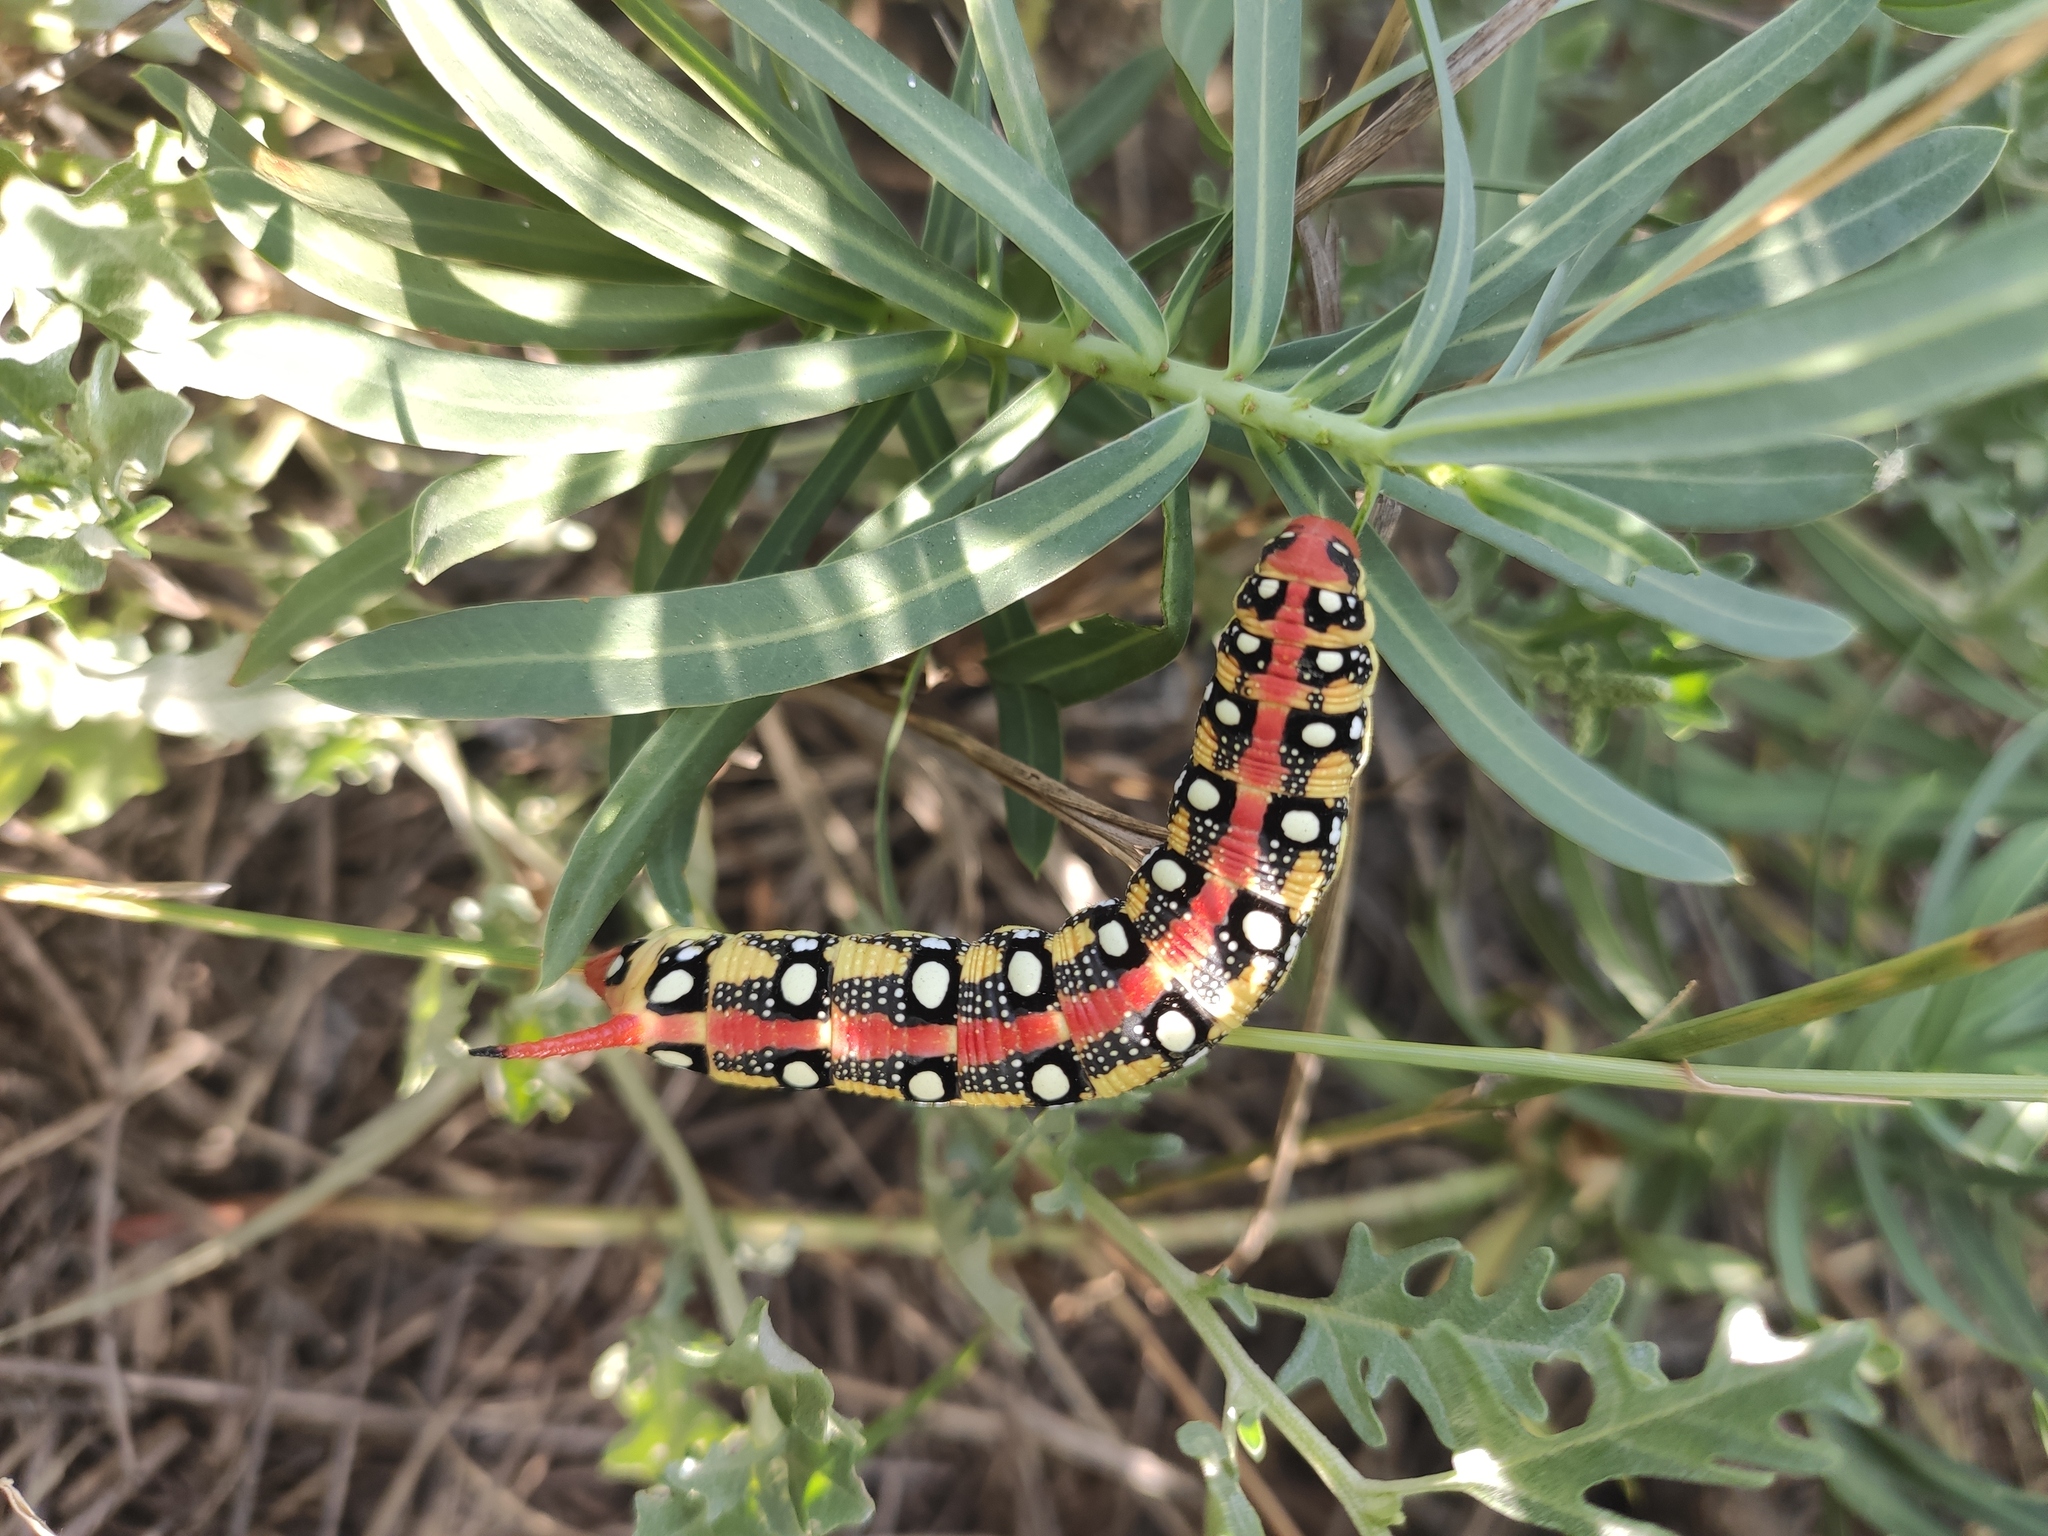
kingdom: Animalia
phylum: Arthropoda
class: Insecta
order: Lepidoptera
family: Sphingidae
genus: Hyles
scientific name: Hyles euphorbiae
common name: Spurge hawk-moth
